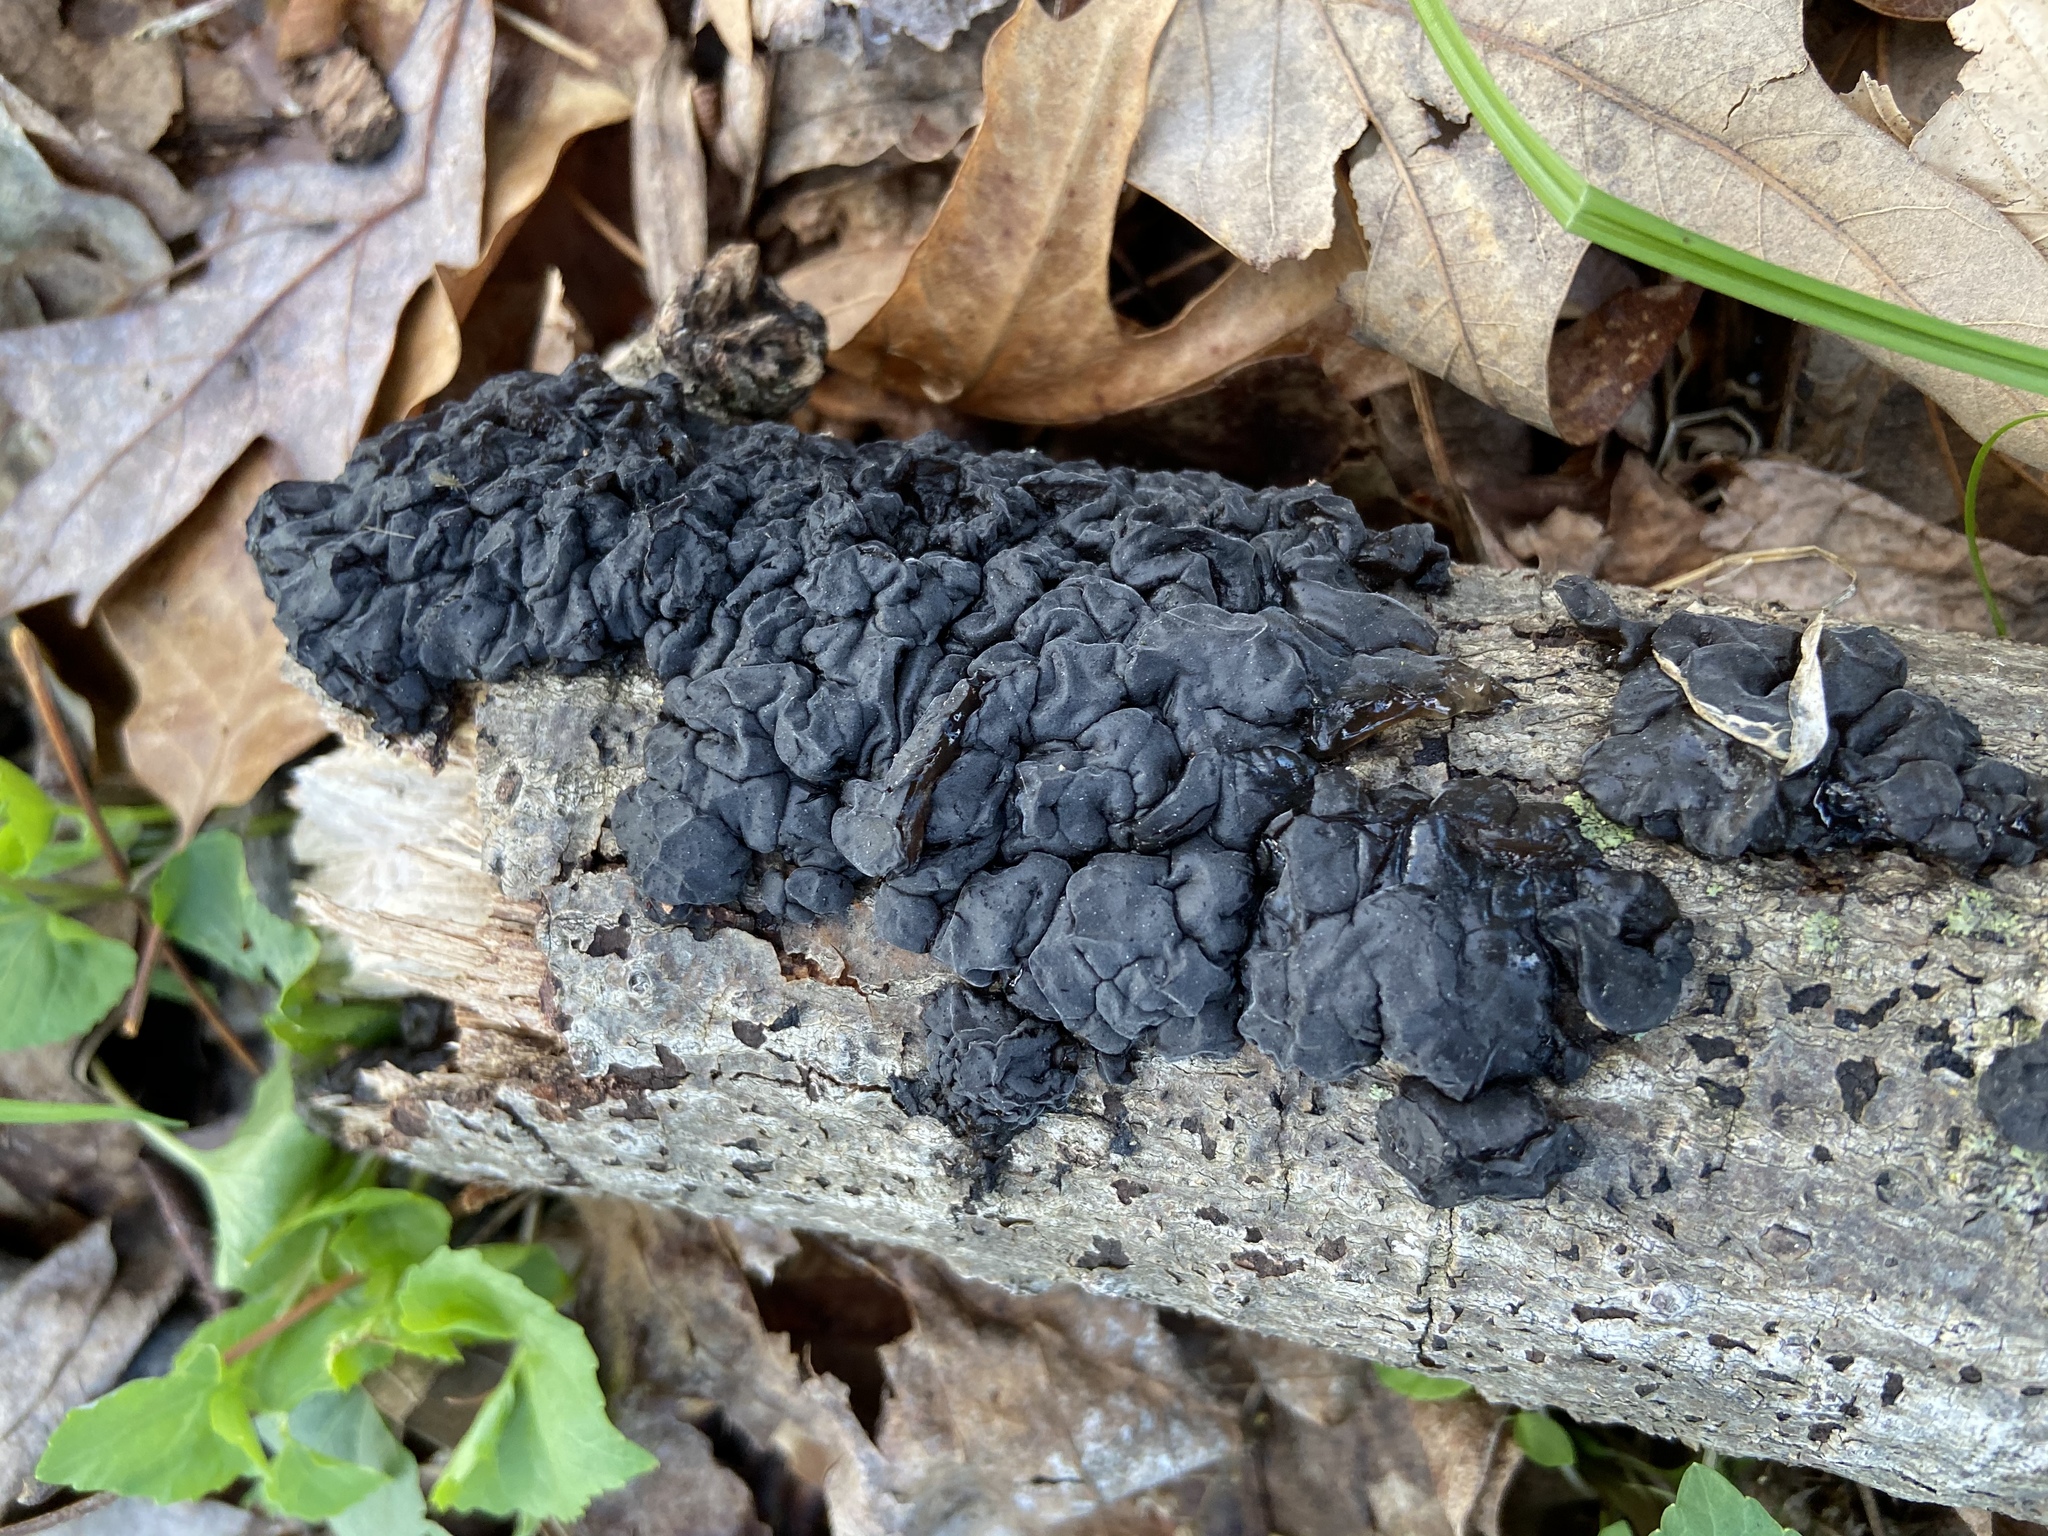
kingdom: Fungi
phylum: Basidiomycota
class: Agaricomycetes
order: Auriculariales
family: Auriculariaceae
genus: Exidia
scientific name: Exidia glandulosa
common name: Witches' butter
